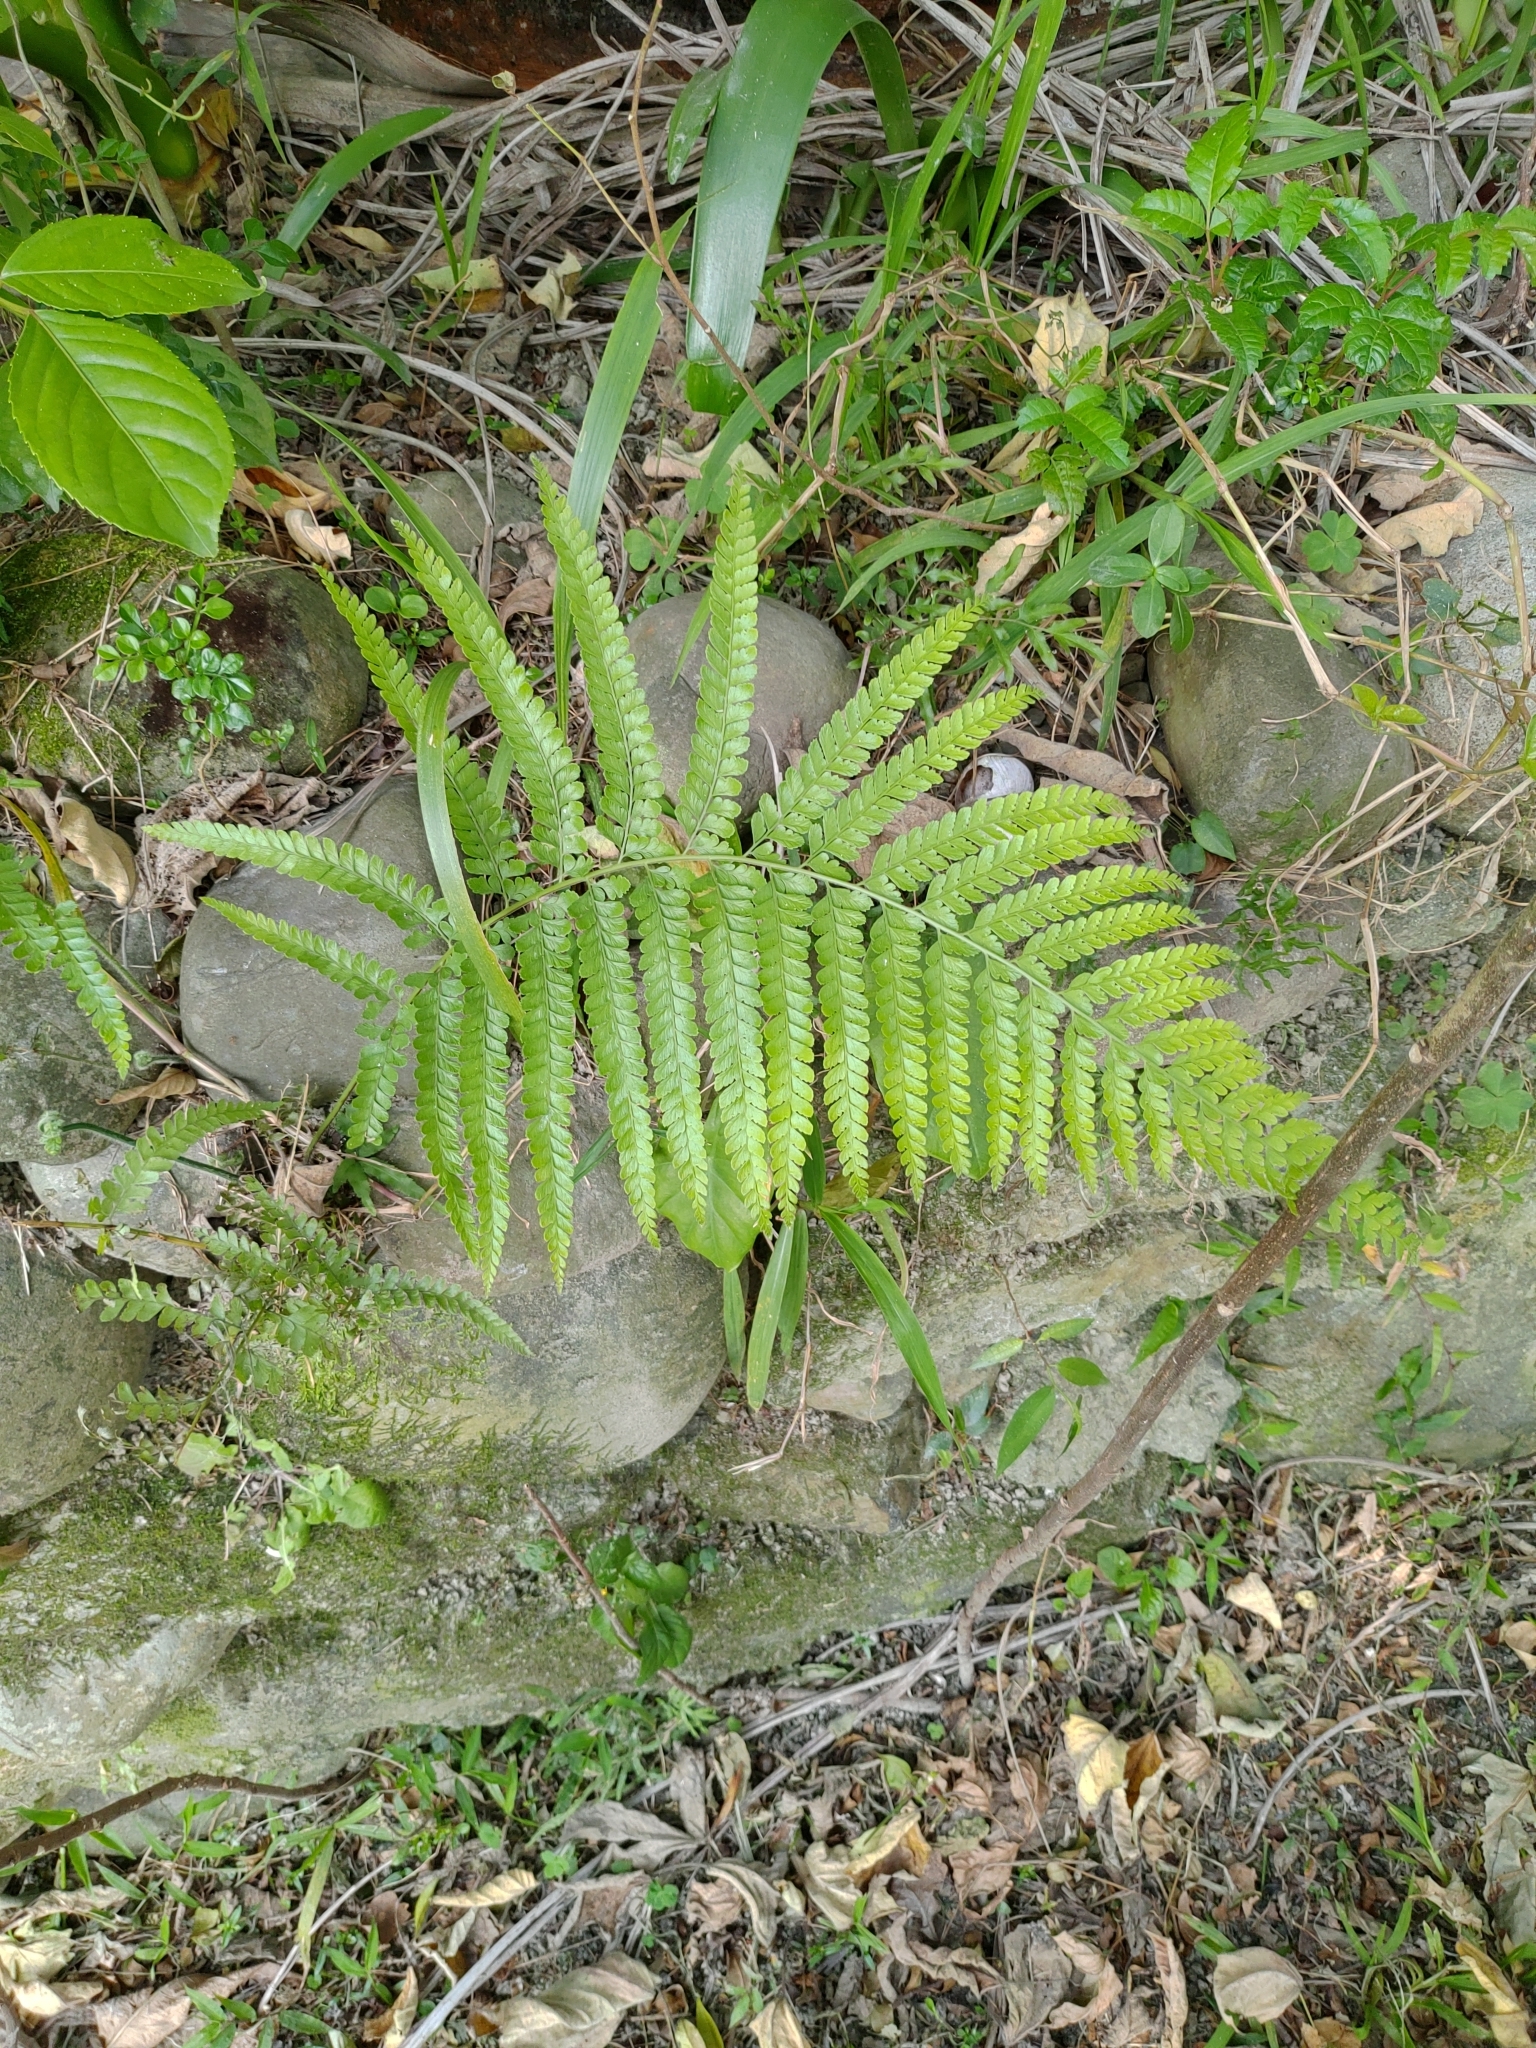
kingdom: Plantae
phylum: Tracheophyta
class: Polypodiopsida
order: Polypodiales
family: Dennstaedtiaceae
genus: Microlepia
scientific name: Microlepia strigosa
